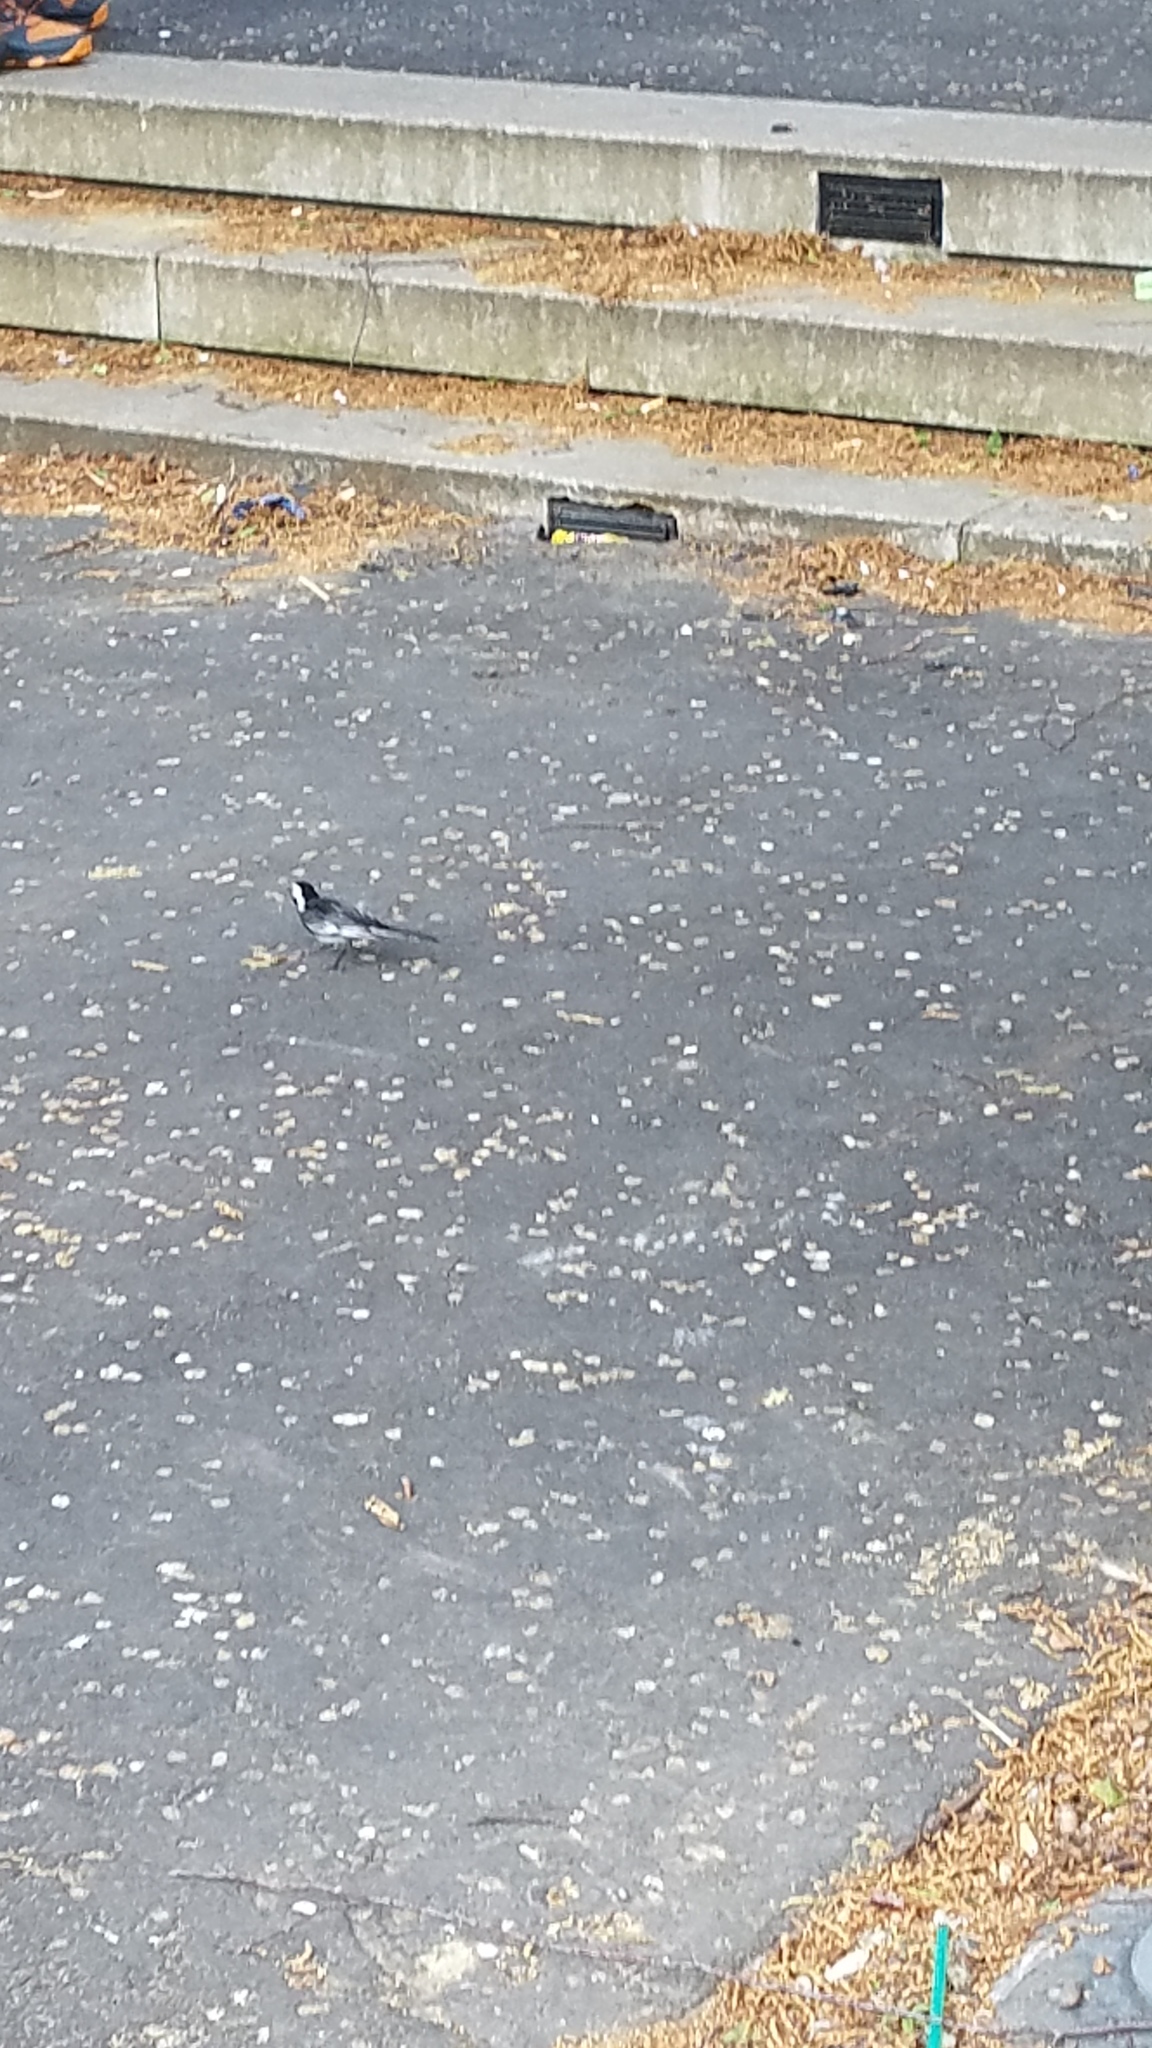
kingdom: Animalia
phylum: Chordata
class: Aves
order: Passeriformes
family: Motacillidae
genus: Motacilla
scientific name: Motacilla alba
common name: White wagtail
